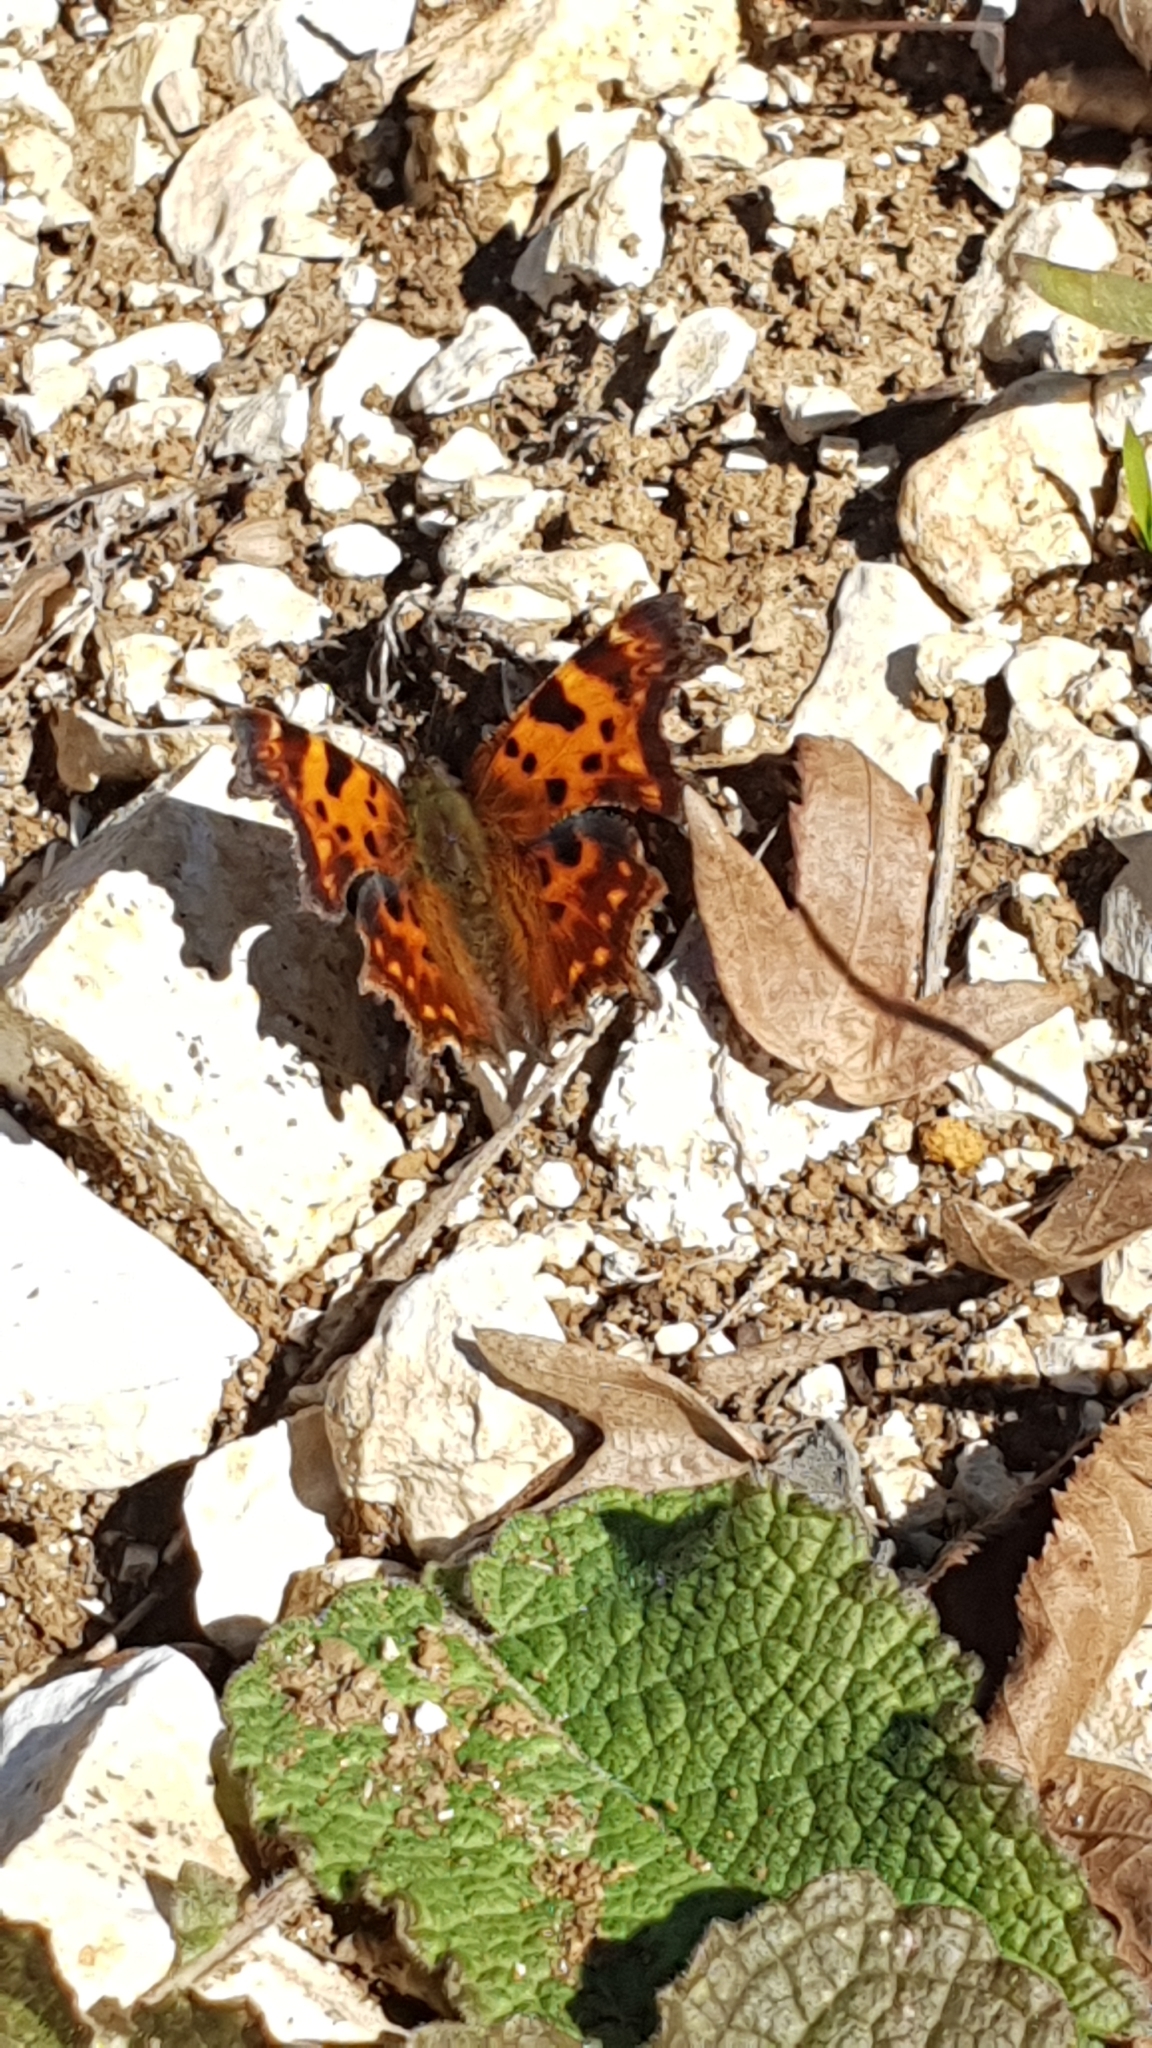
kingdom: Animalia
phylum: Arthropoda
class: Insecta
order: Lepidoptera
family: Nymphalidae
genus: Polygonia
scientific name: Polygonia c-album
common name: Comma
